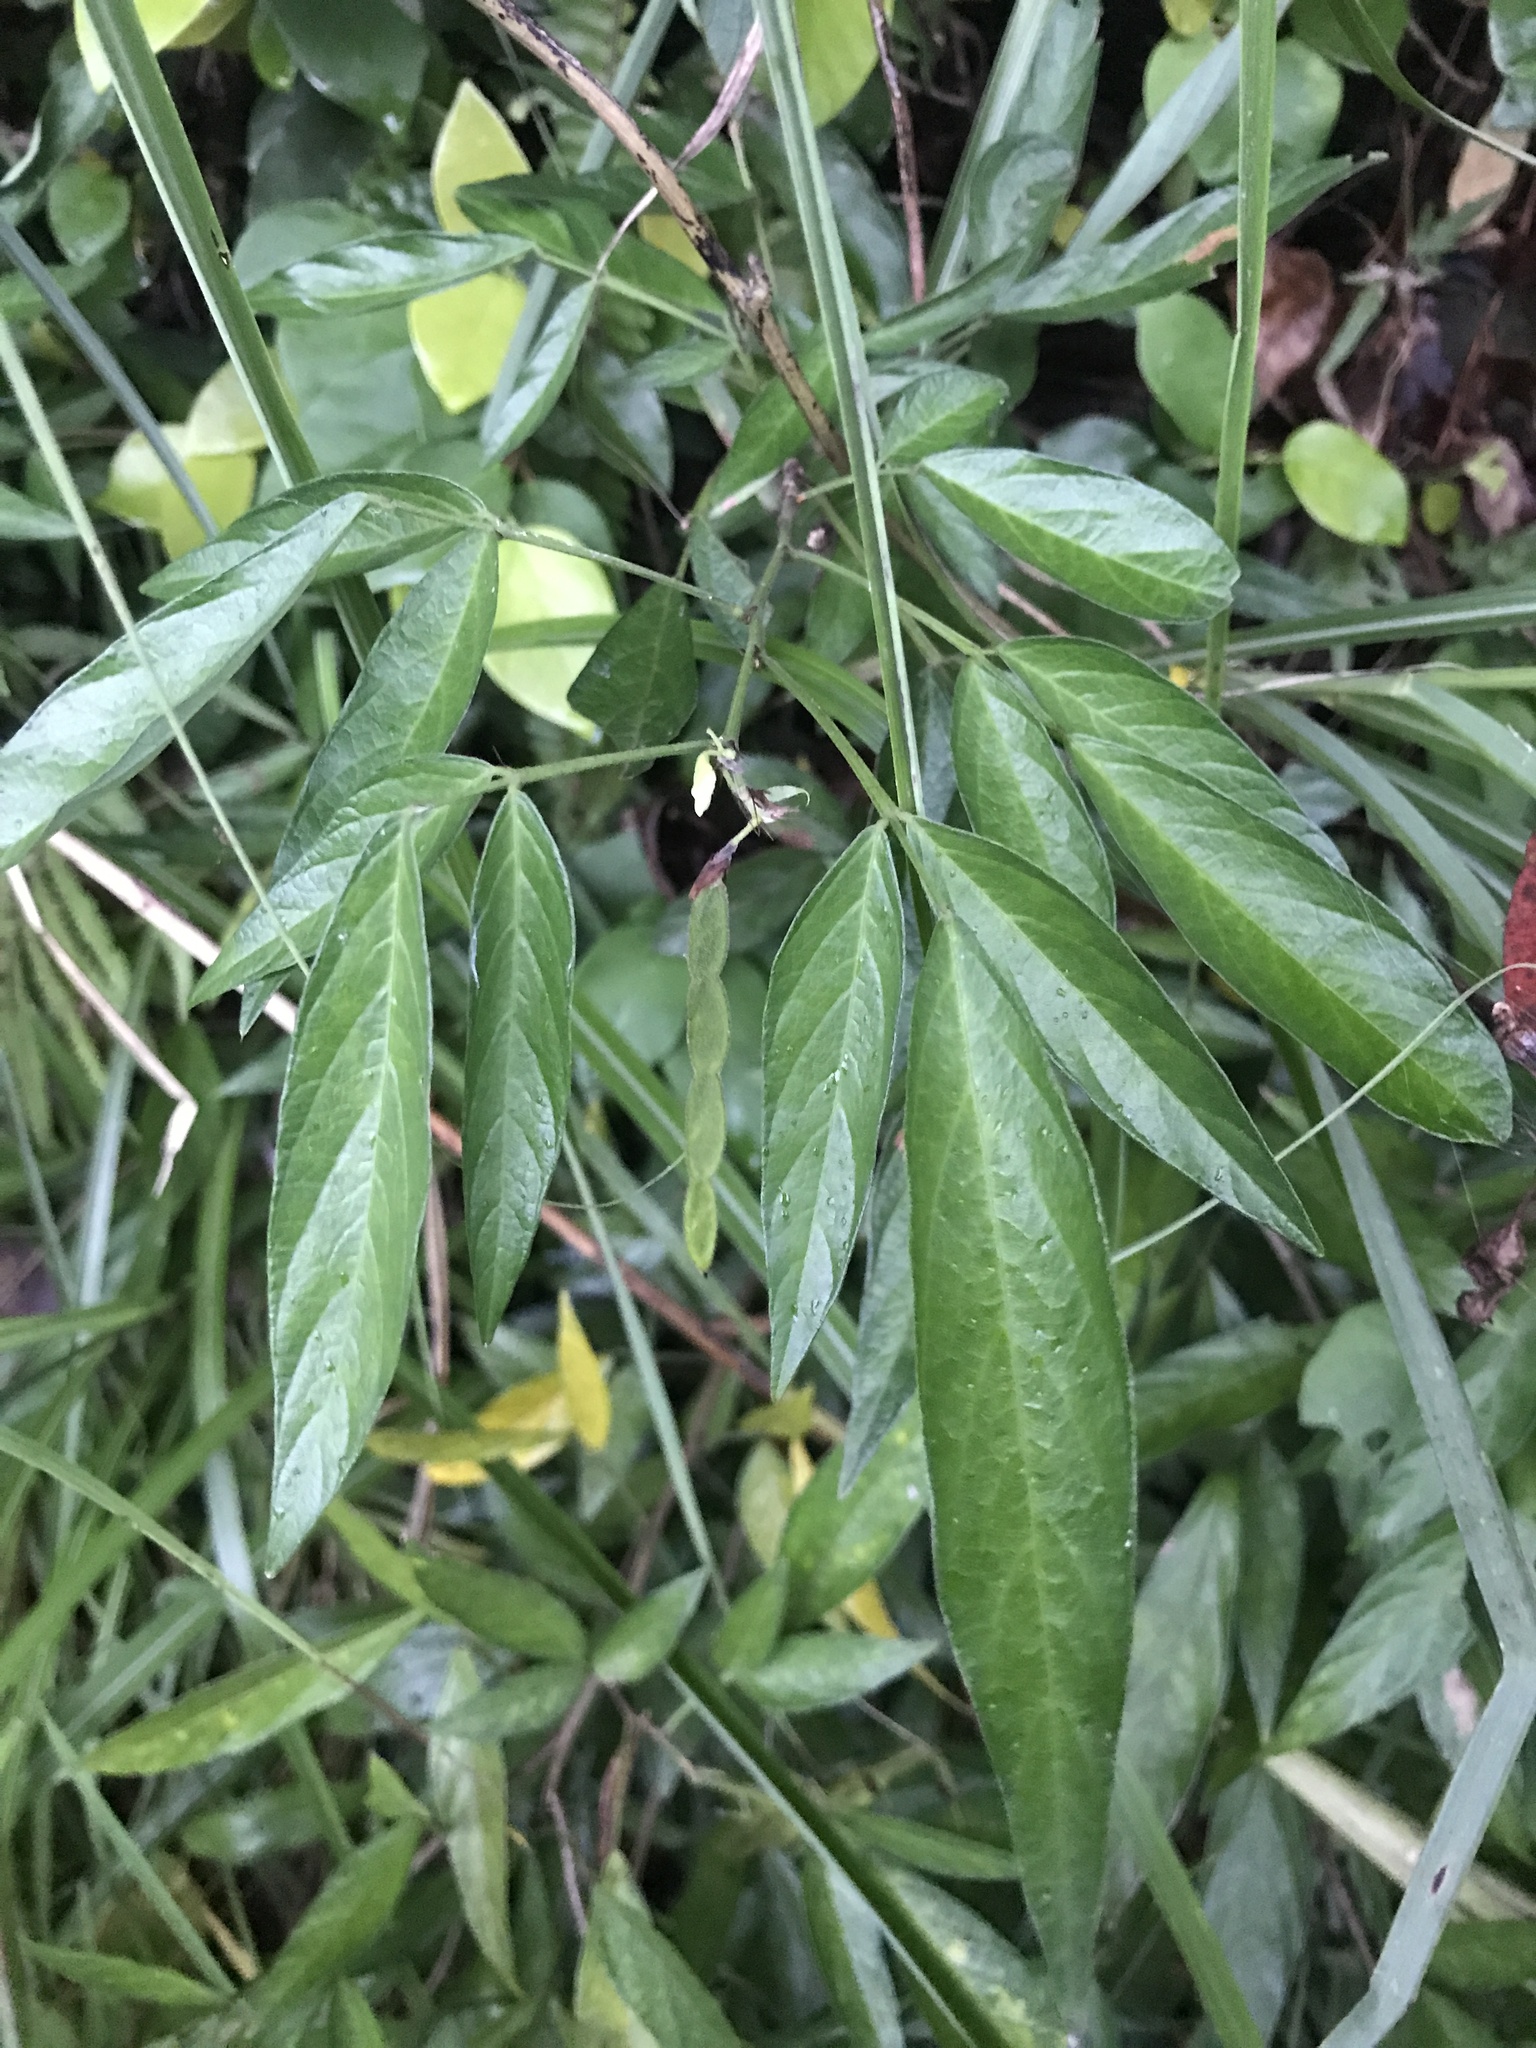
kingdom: Plantae
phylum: Tracheophyta
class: Magnoliopsida
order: Fabales
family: Fabaceae
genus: Ohwia
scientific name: Ohwia caudata
